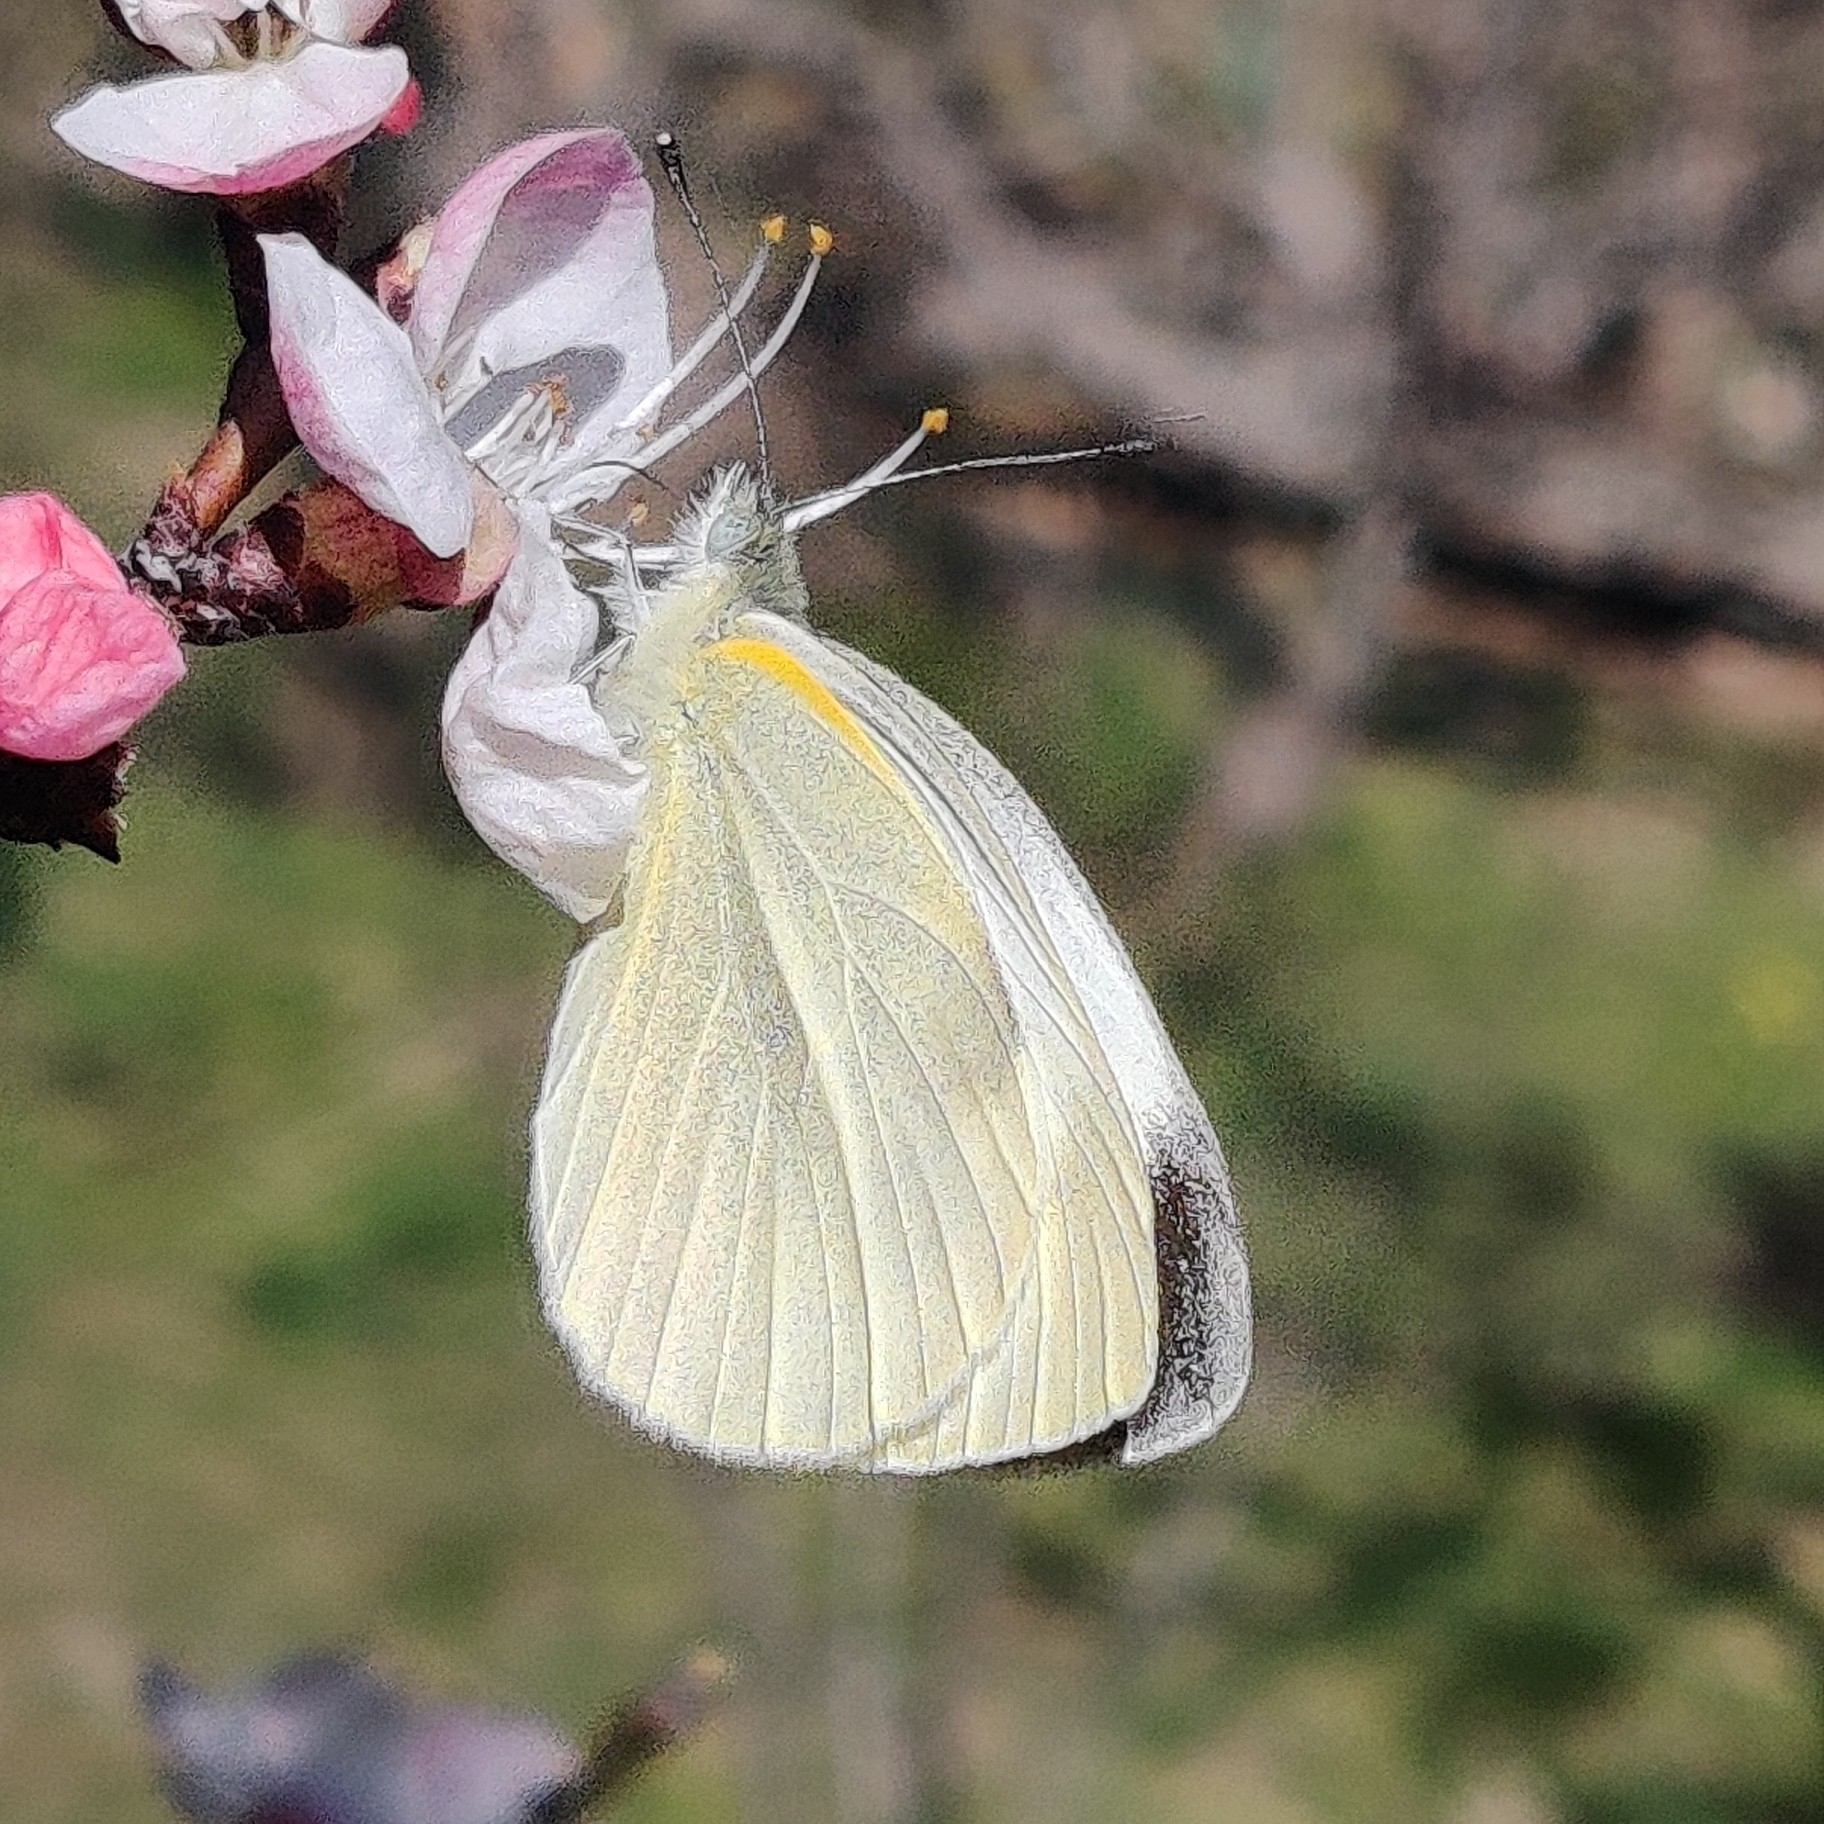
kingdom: Animalia
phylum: Arthropoda
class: Insecta
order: Lepidoptera
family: Pieridae
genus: Pieris
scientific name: Pieris canidia
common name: Indian cabbage white
